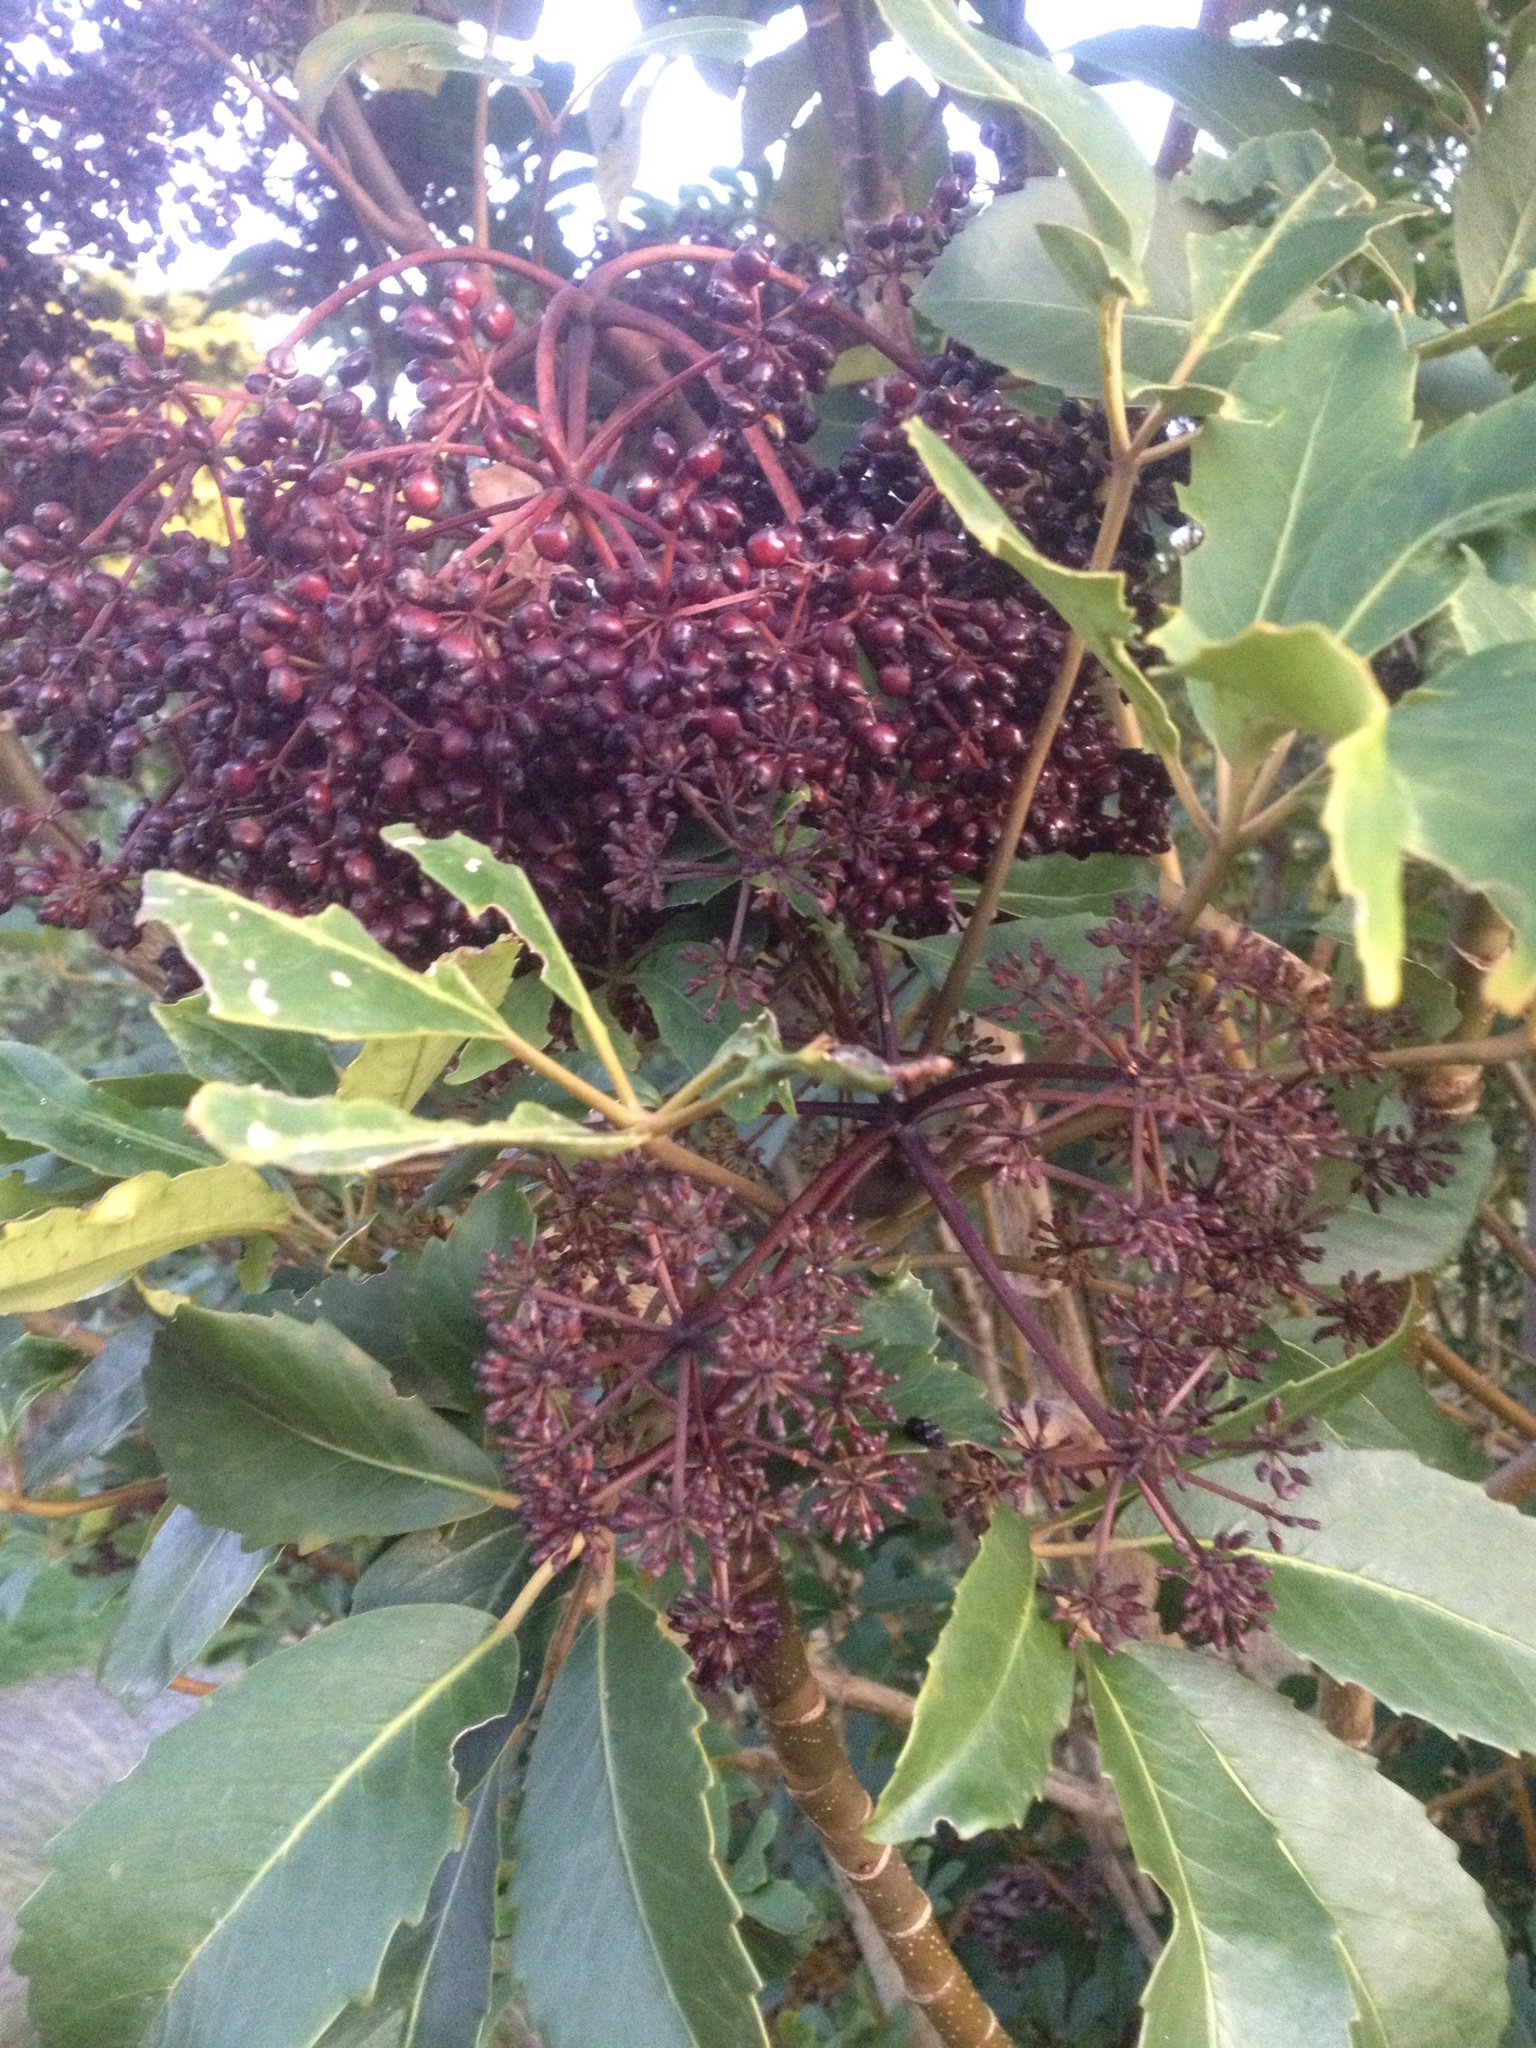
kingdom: Plantae
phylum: Tracheophyta
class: Magnoliopsida
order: Apiales
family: Araliaceae
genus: Neopanax
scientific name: Neopanax arboreus
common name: Five-fingers
